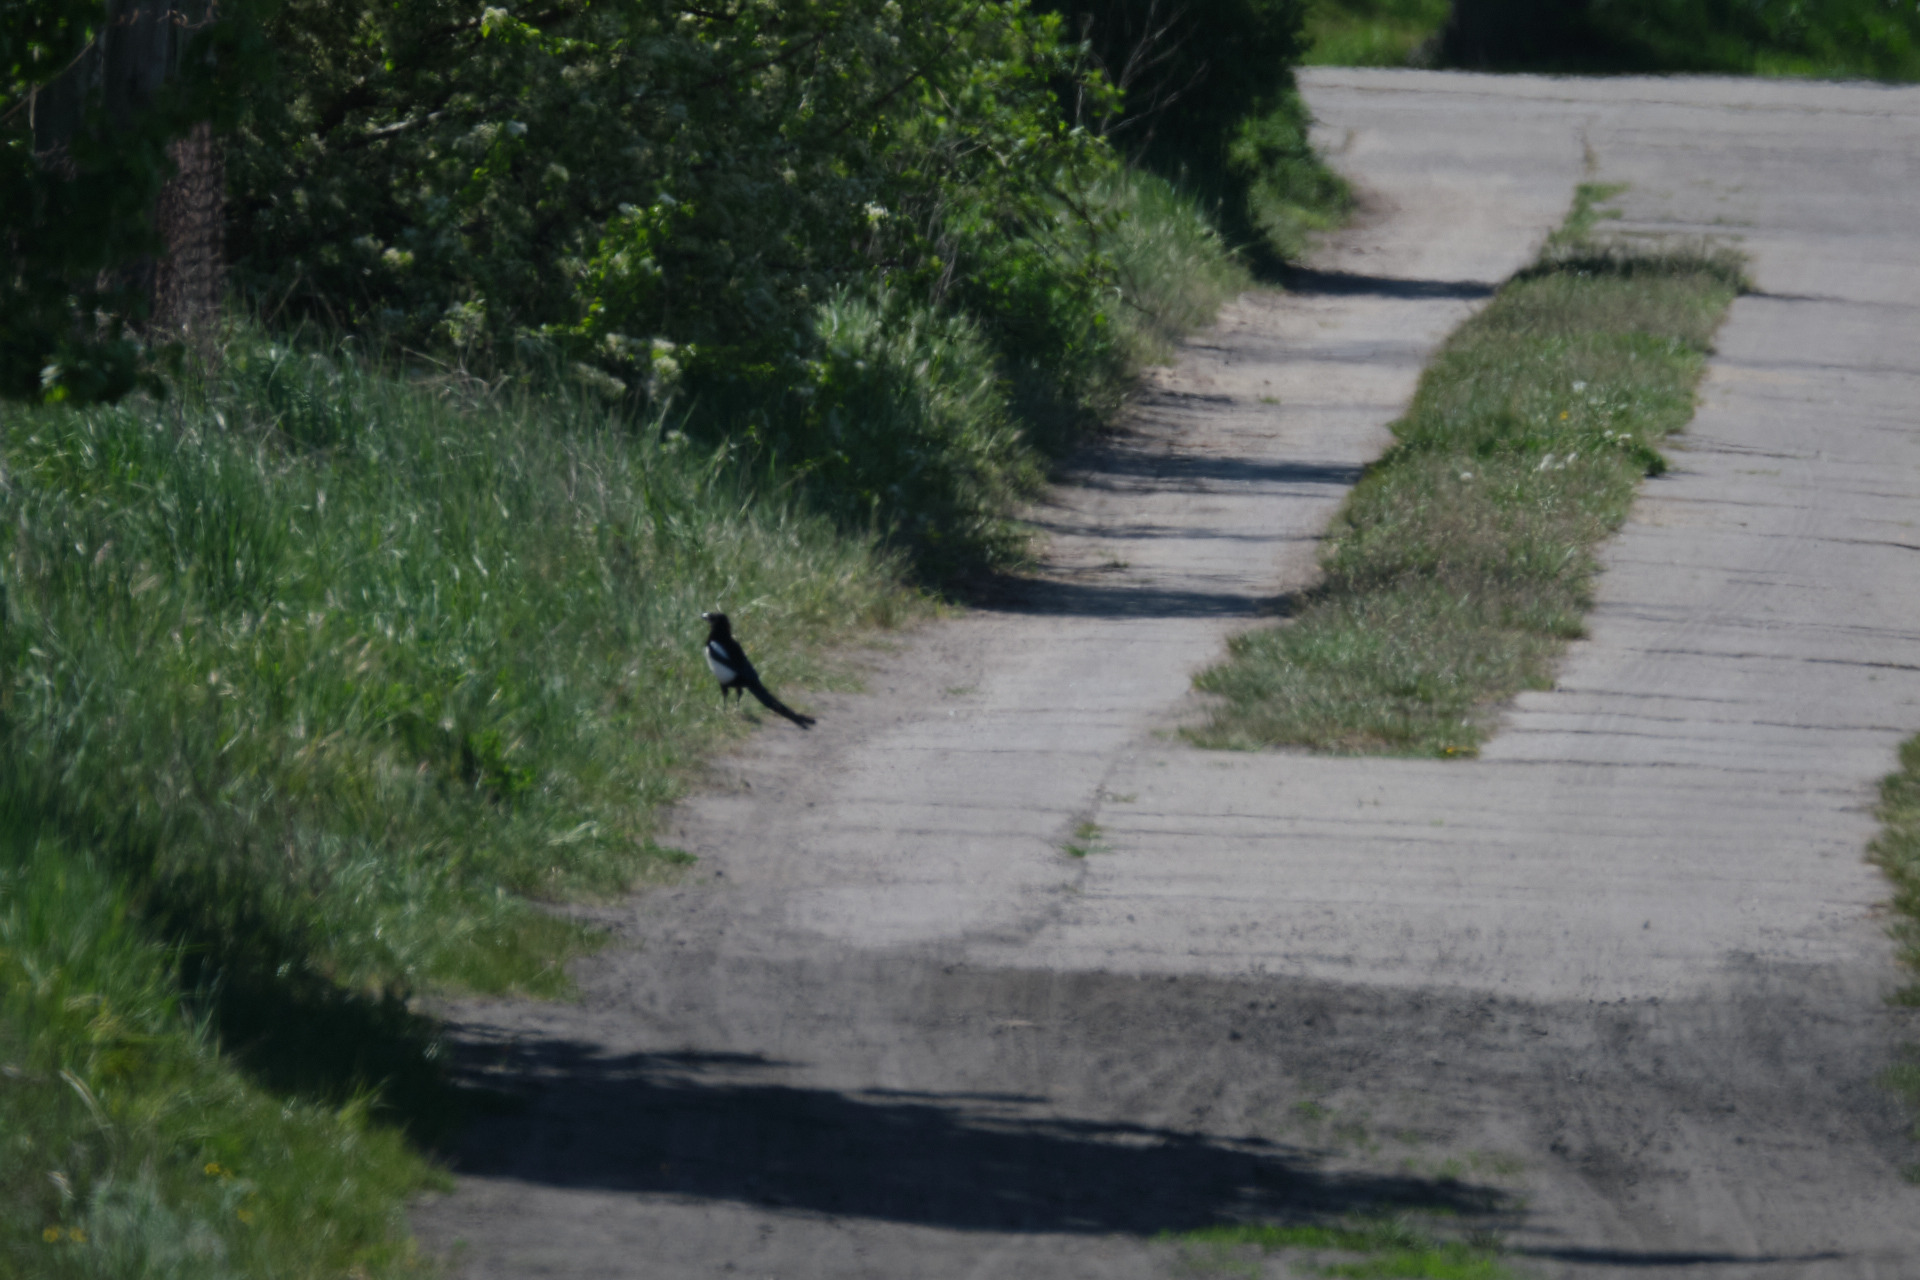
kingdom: Animalia
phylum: Chordata
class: Aves
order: Passeriformes
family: Corvidae
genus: Pica
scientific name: Pica pica
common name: Eurasian magpie
